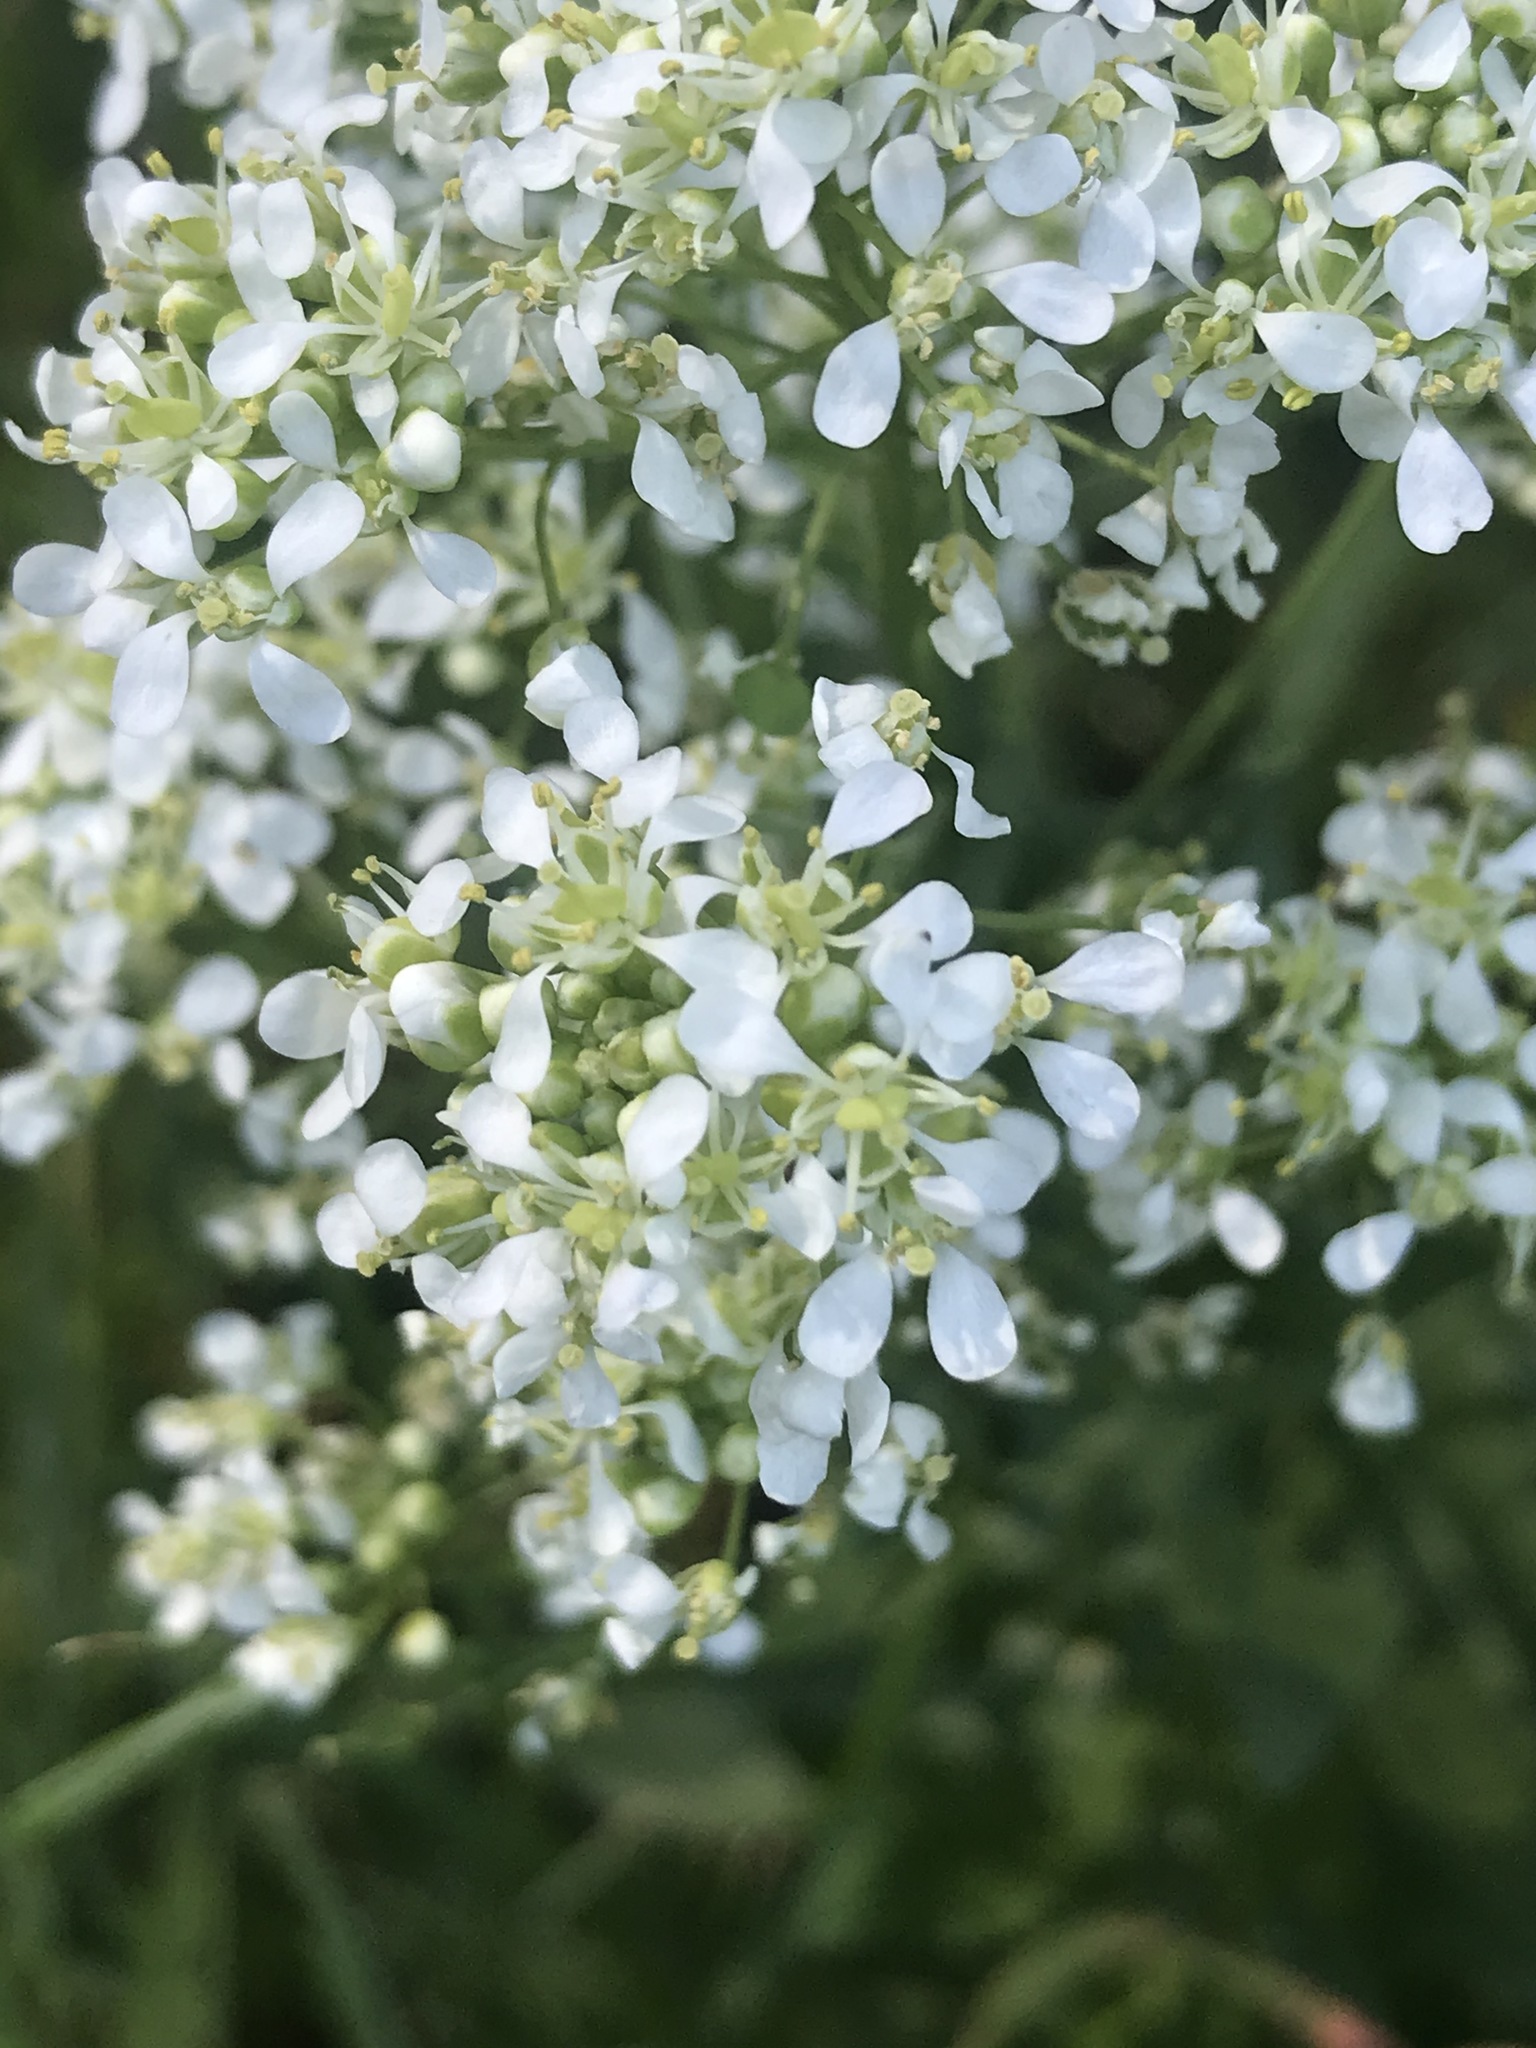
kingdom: Plantae
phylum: Tracheophyta
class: Magnoliopsida
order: Brassicales
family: Brassicaceae
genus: Lepidium
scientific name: Lepidium latifolium
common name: Dittander
